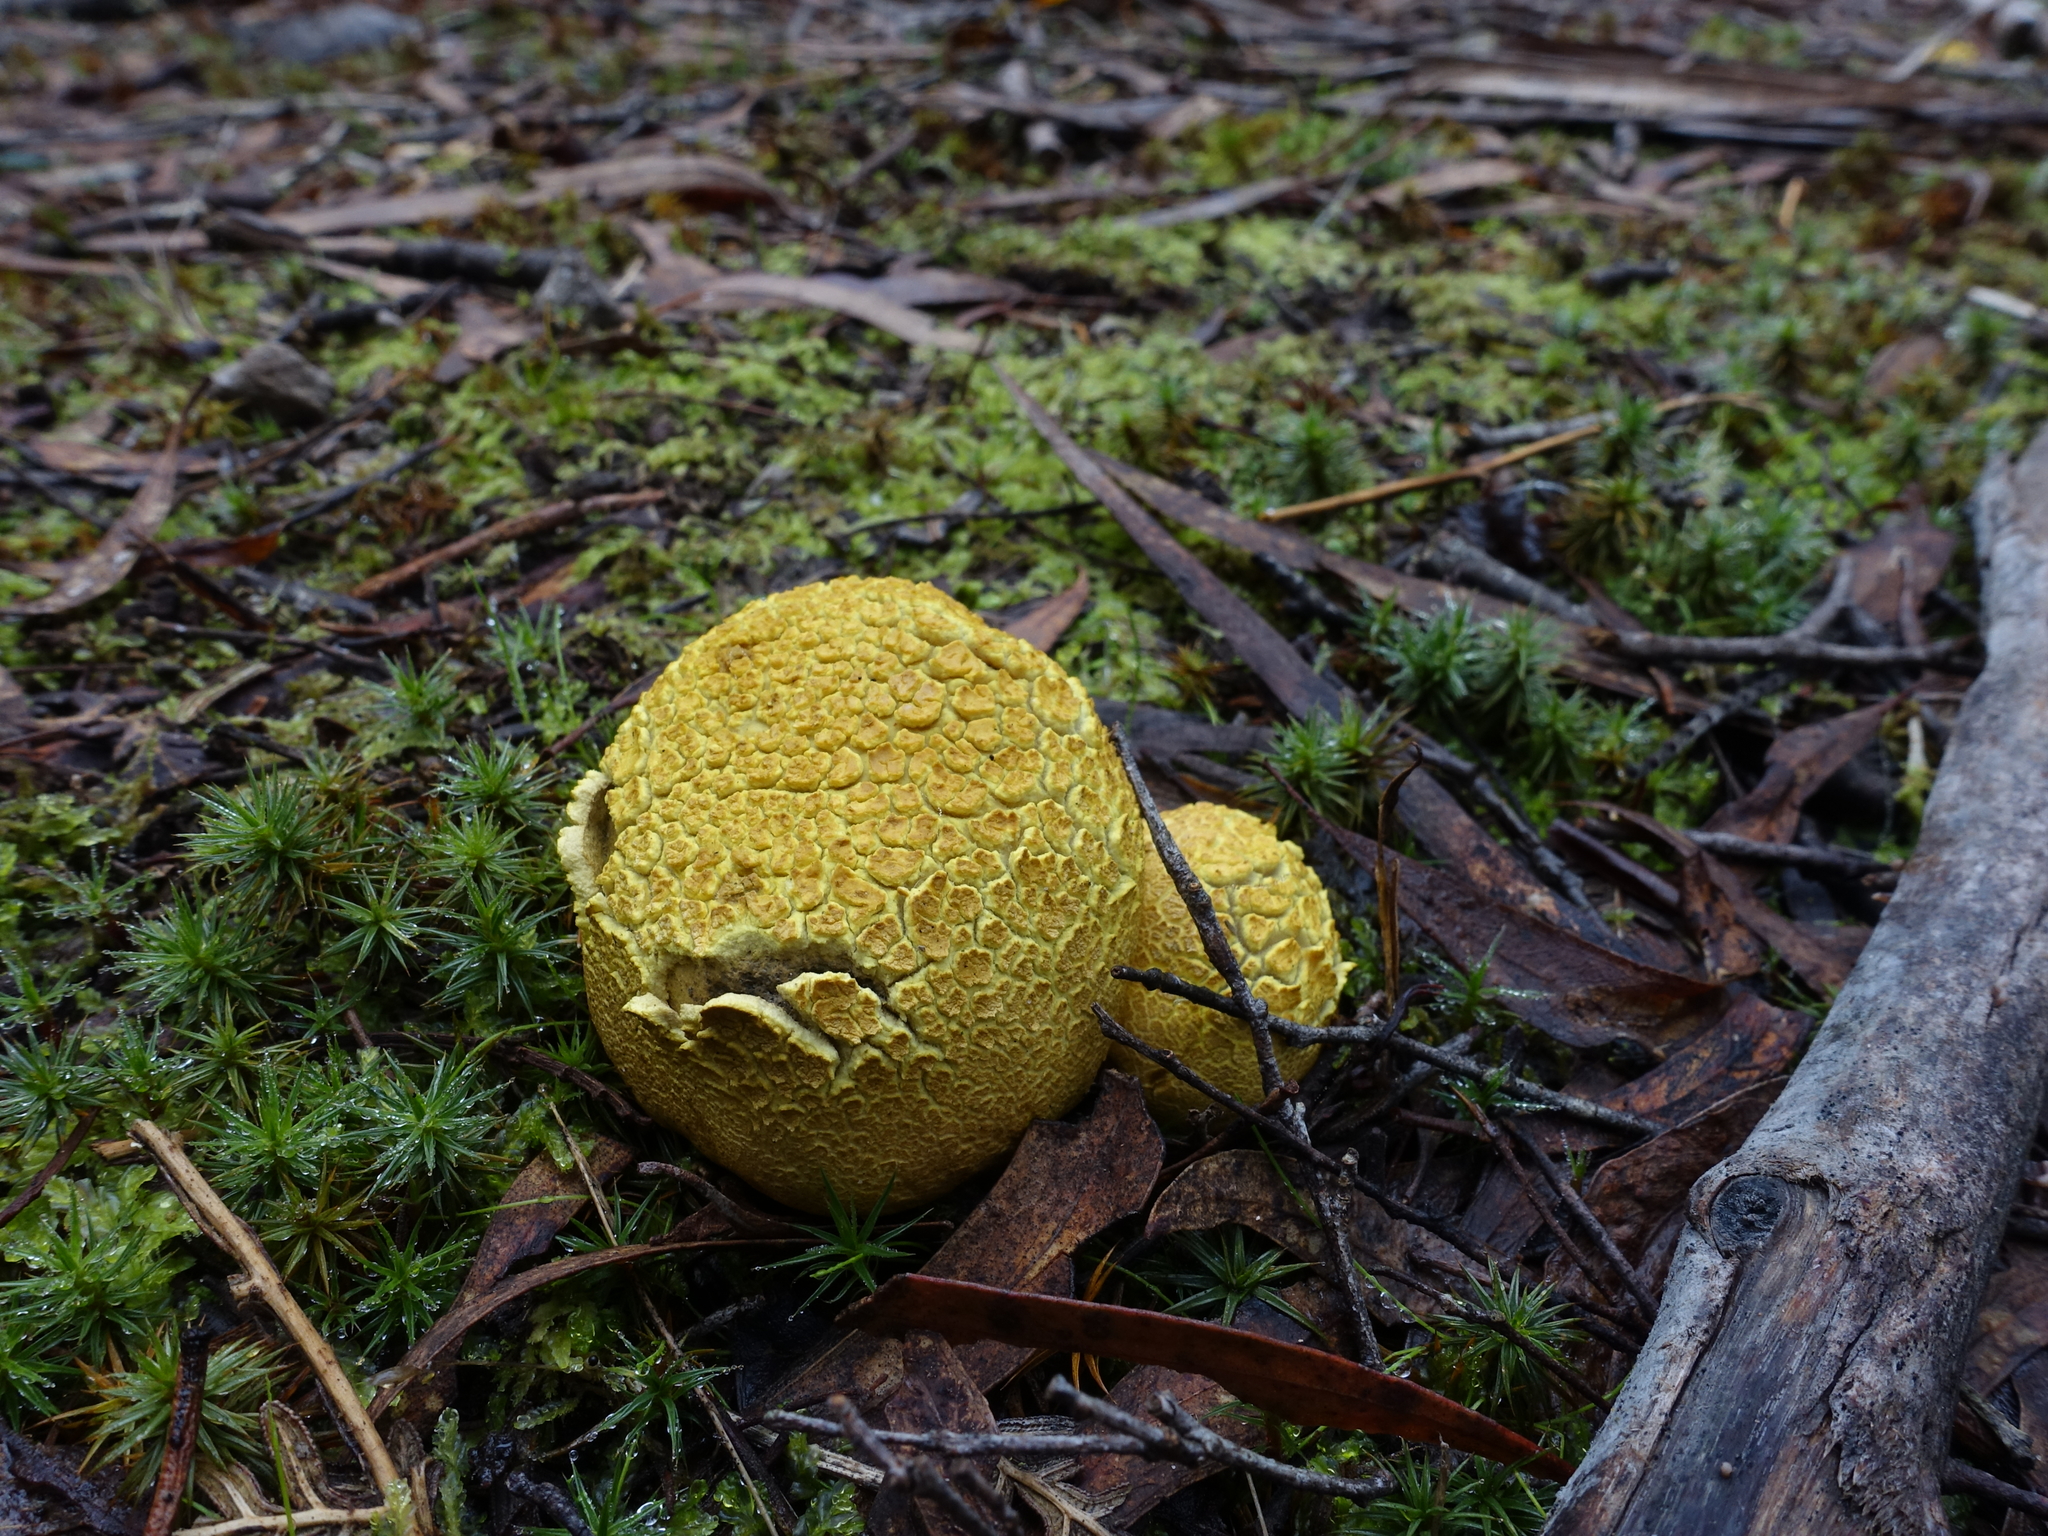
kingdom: Fungi
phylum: Basidiomycota
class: Agaricomycetes
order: Boletales
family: Sclerodermataceae
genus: Scleroderma
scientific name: Scleroderma cepa
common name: Onion earthball
